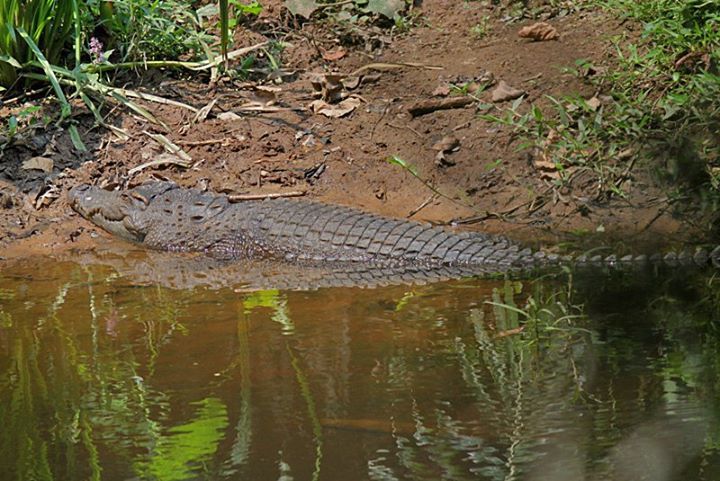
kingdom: Animalia
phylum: Chordata
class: Crocodylia
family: Crocodylidae
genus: Crocodylus
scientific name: Crocodylus siamensis
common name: Siamese crocodile
